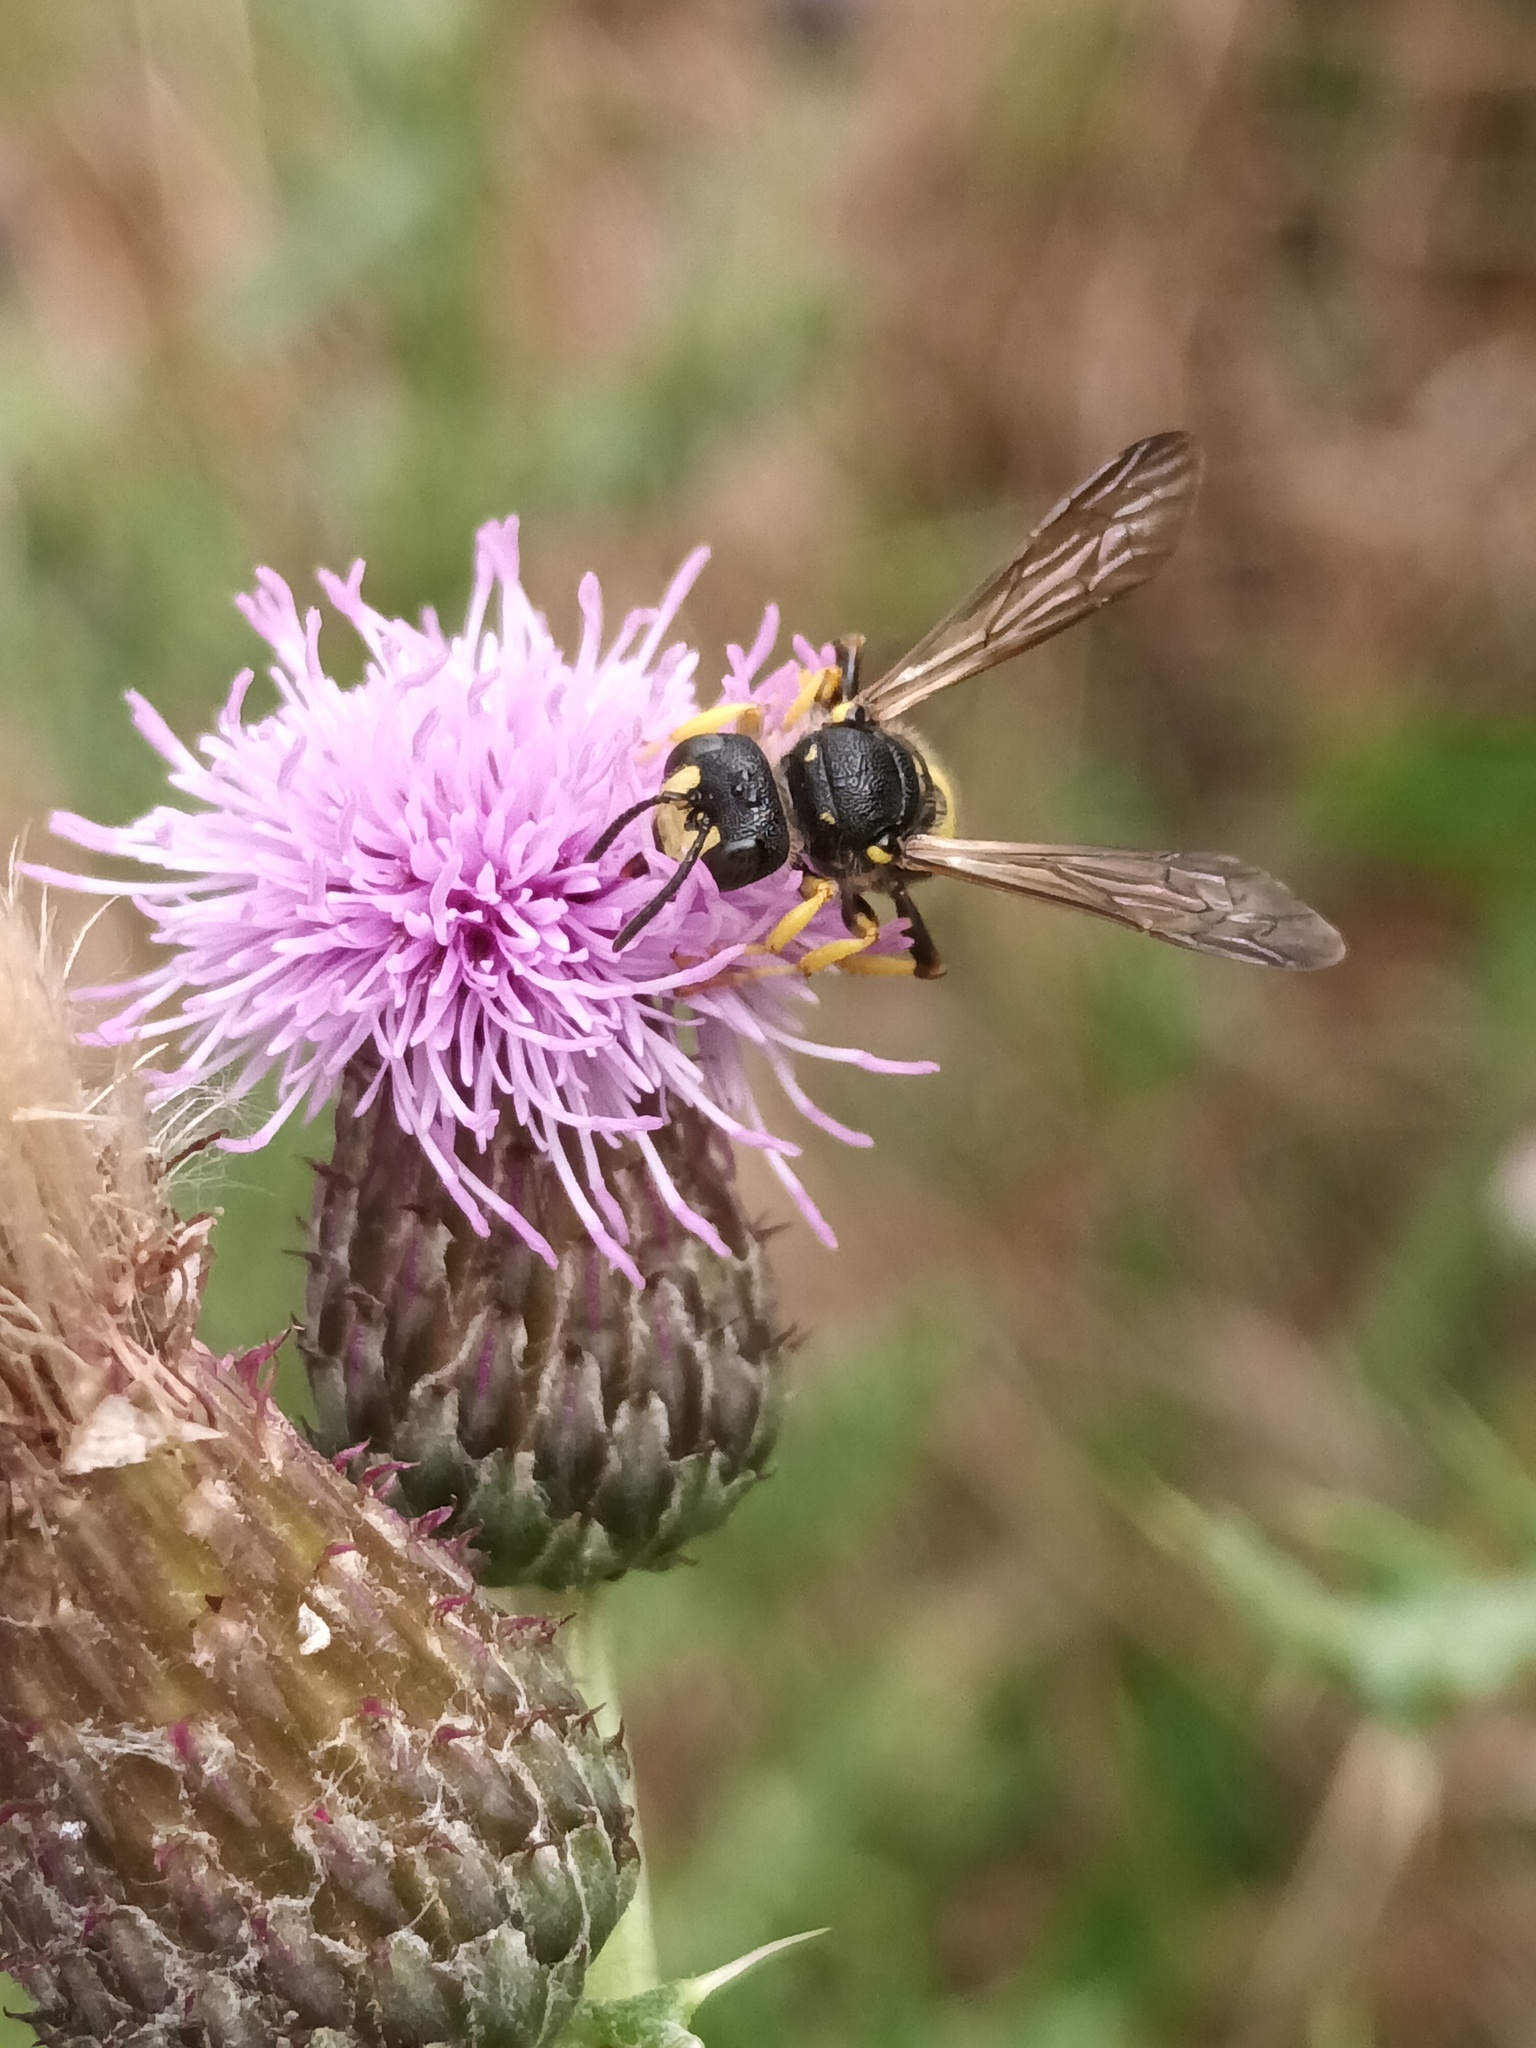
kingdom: Animalia
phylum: Arthropoda
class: Insecta
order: Hymenoptera
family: Crabronidae
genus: Cerceris
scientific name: Cerceris rybyensis
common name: Ornate tailed digger wasp
